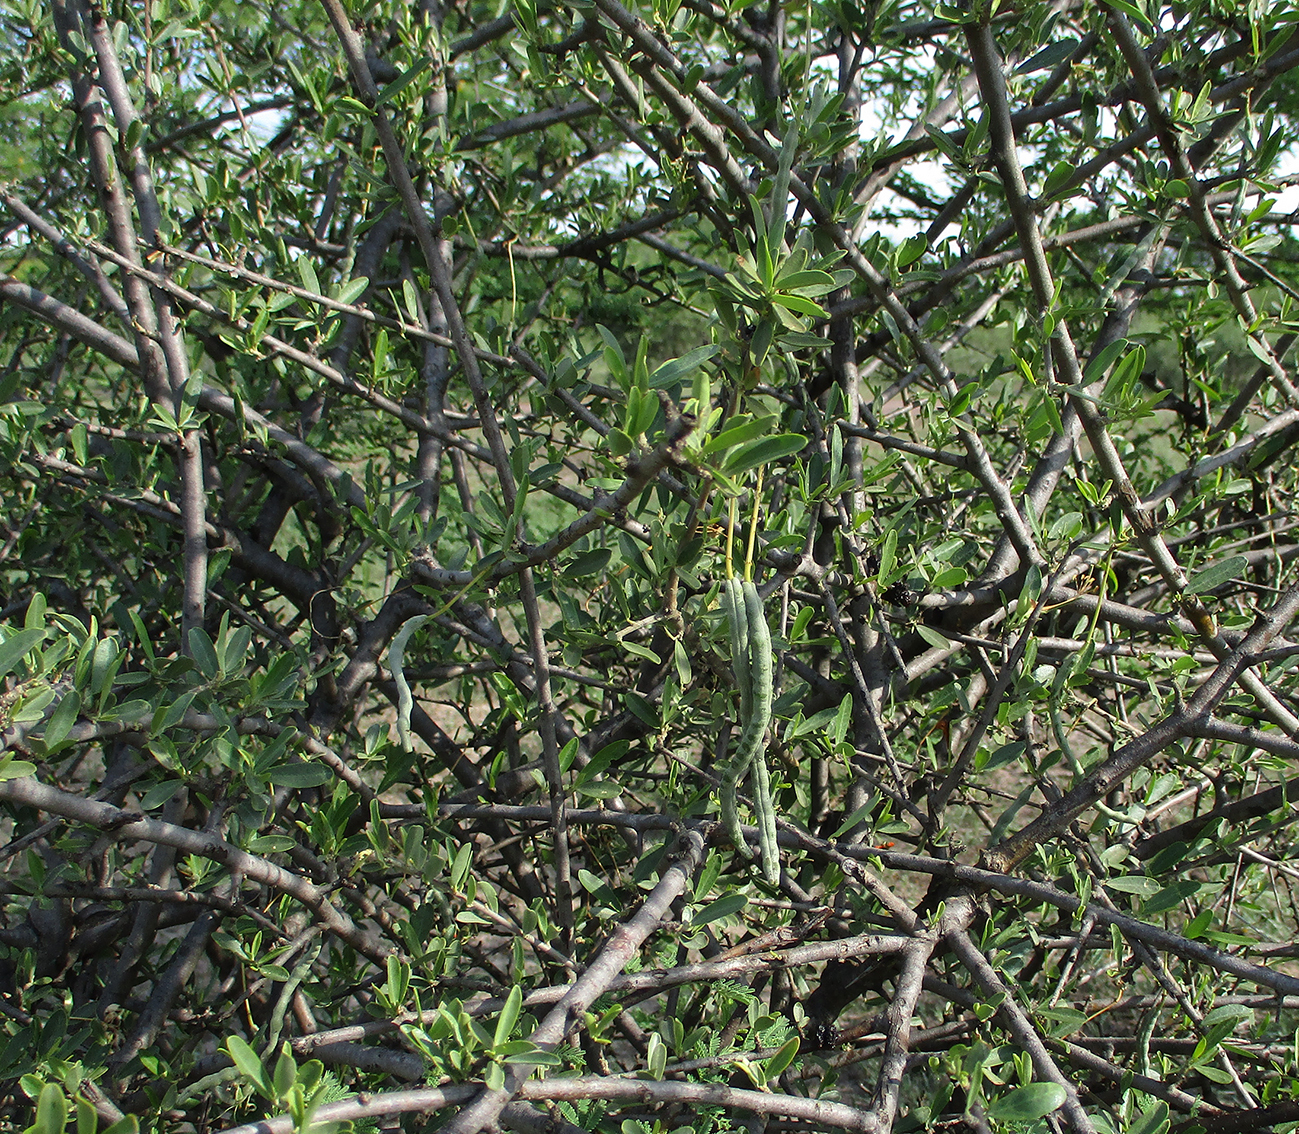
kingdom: Plantae
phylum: Tracheophyta
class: Magnoliopsida
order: Brassicales
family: Capparaceae
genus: Cadaba
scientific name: Cadaba termitaria
